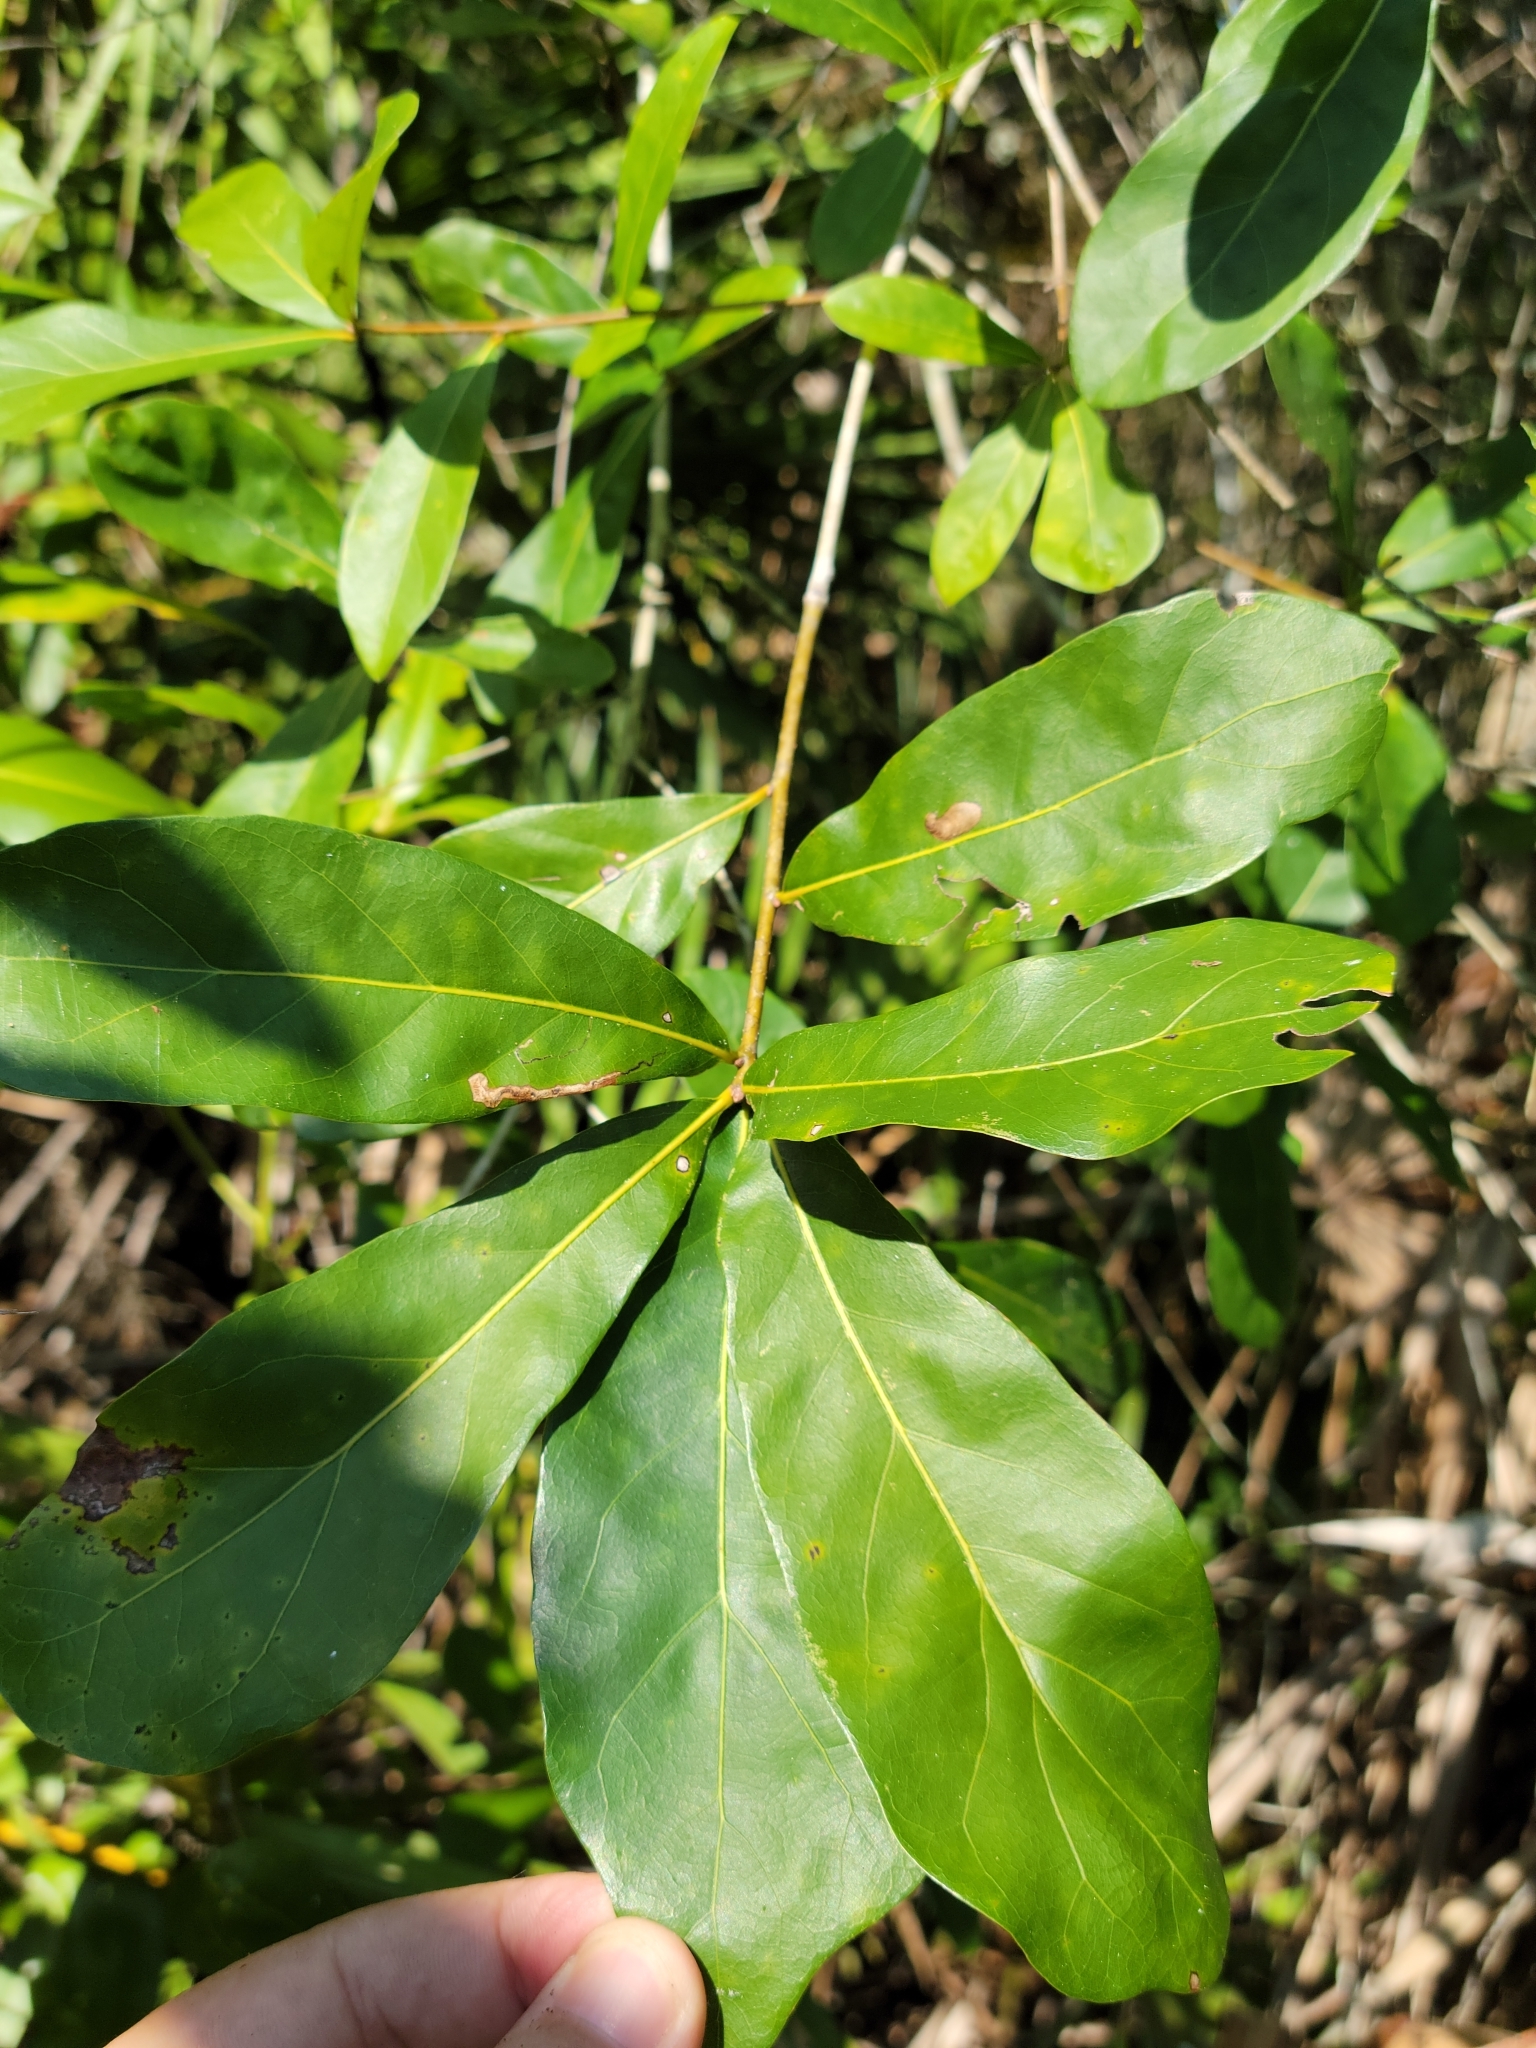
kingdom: Plantae
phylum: Tracheophyta
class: Magnoliopsida
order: Fagales
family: Fagaceae
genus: Quercus
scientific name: Quercus laurifolia
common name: Swamp laurel oak
